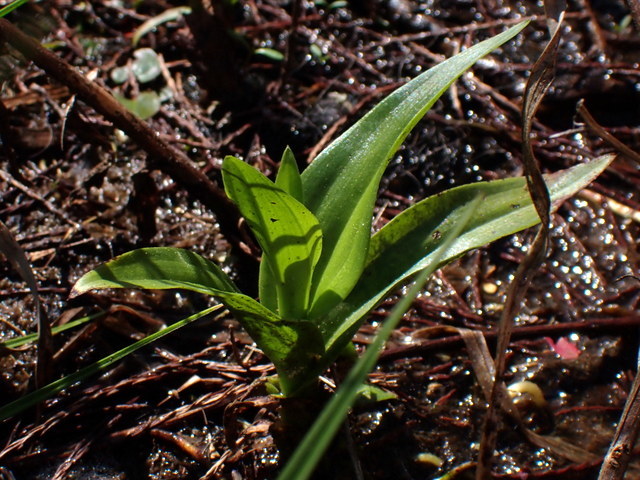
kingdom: Plantae
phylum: Tracheophyta
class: Liliopsida
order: Asparagales
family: Orchidaceae
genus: Habenaria
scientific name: Habenaria repens
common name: Water orchid
